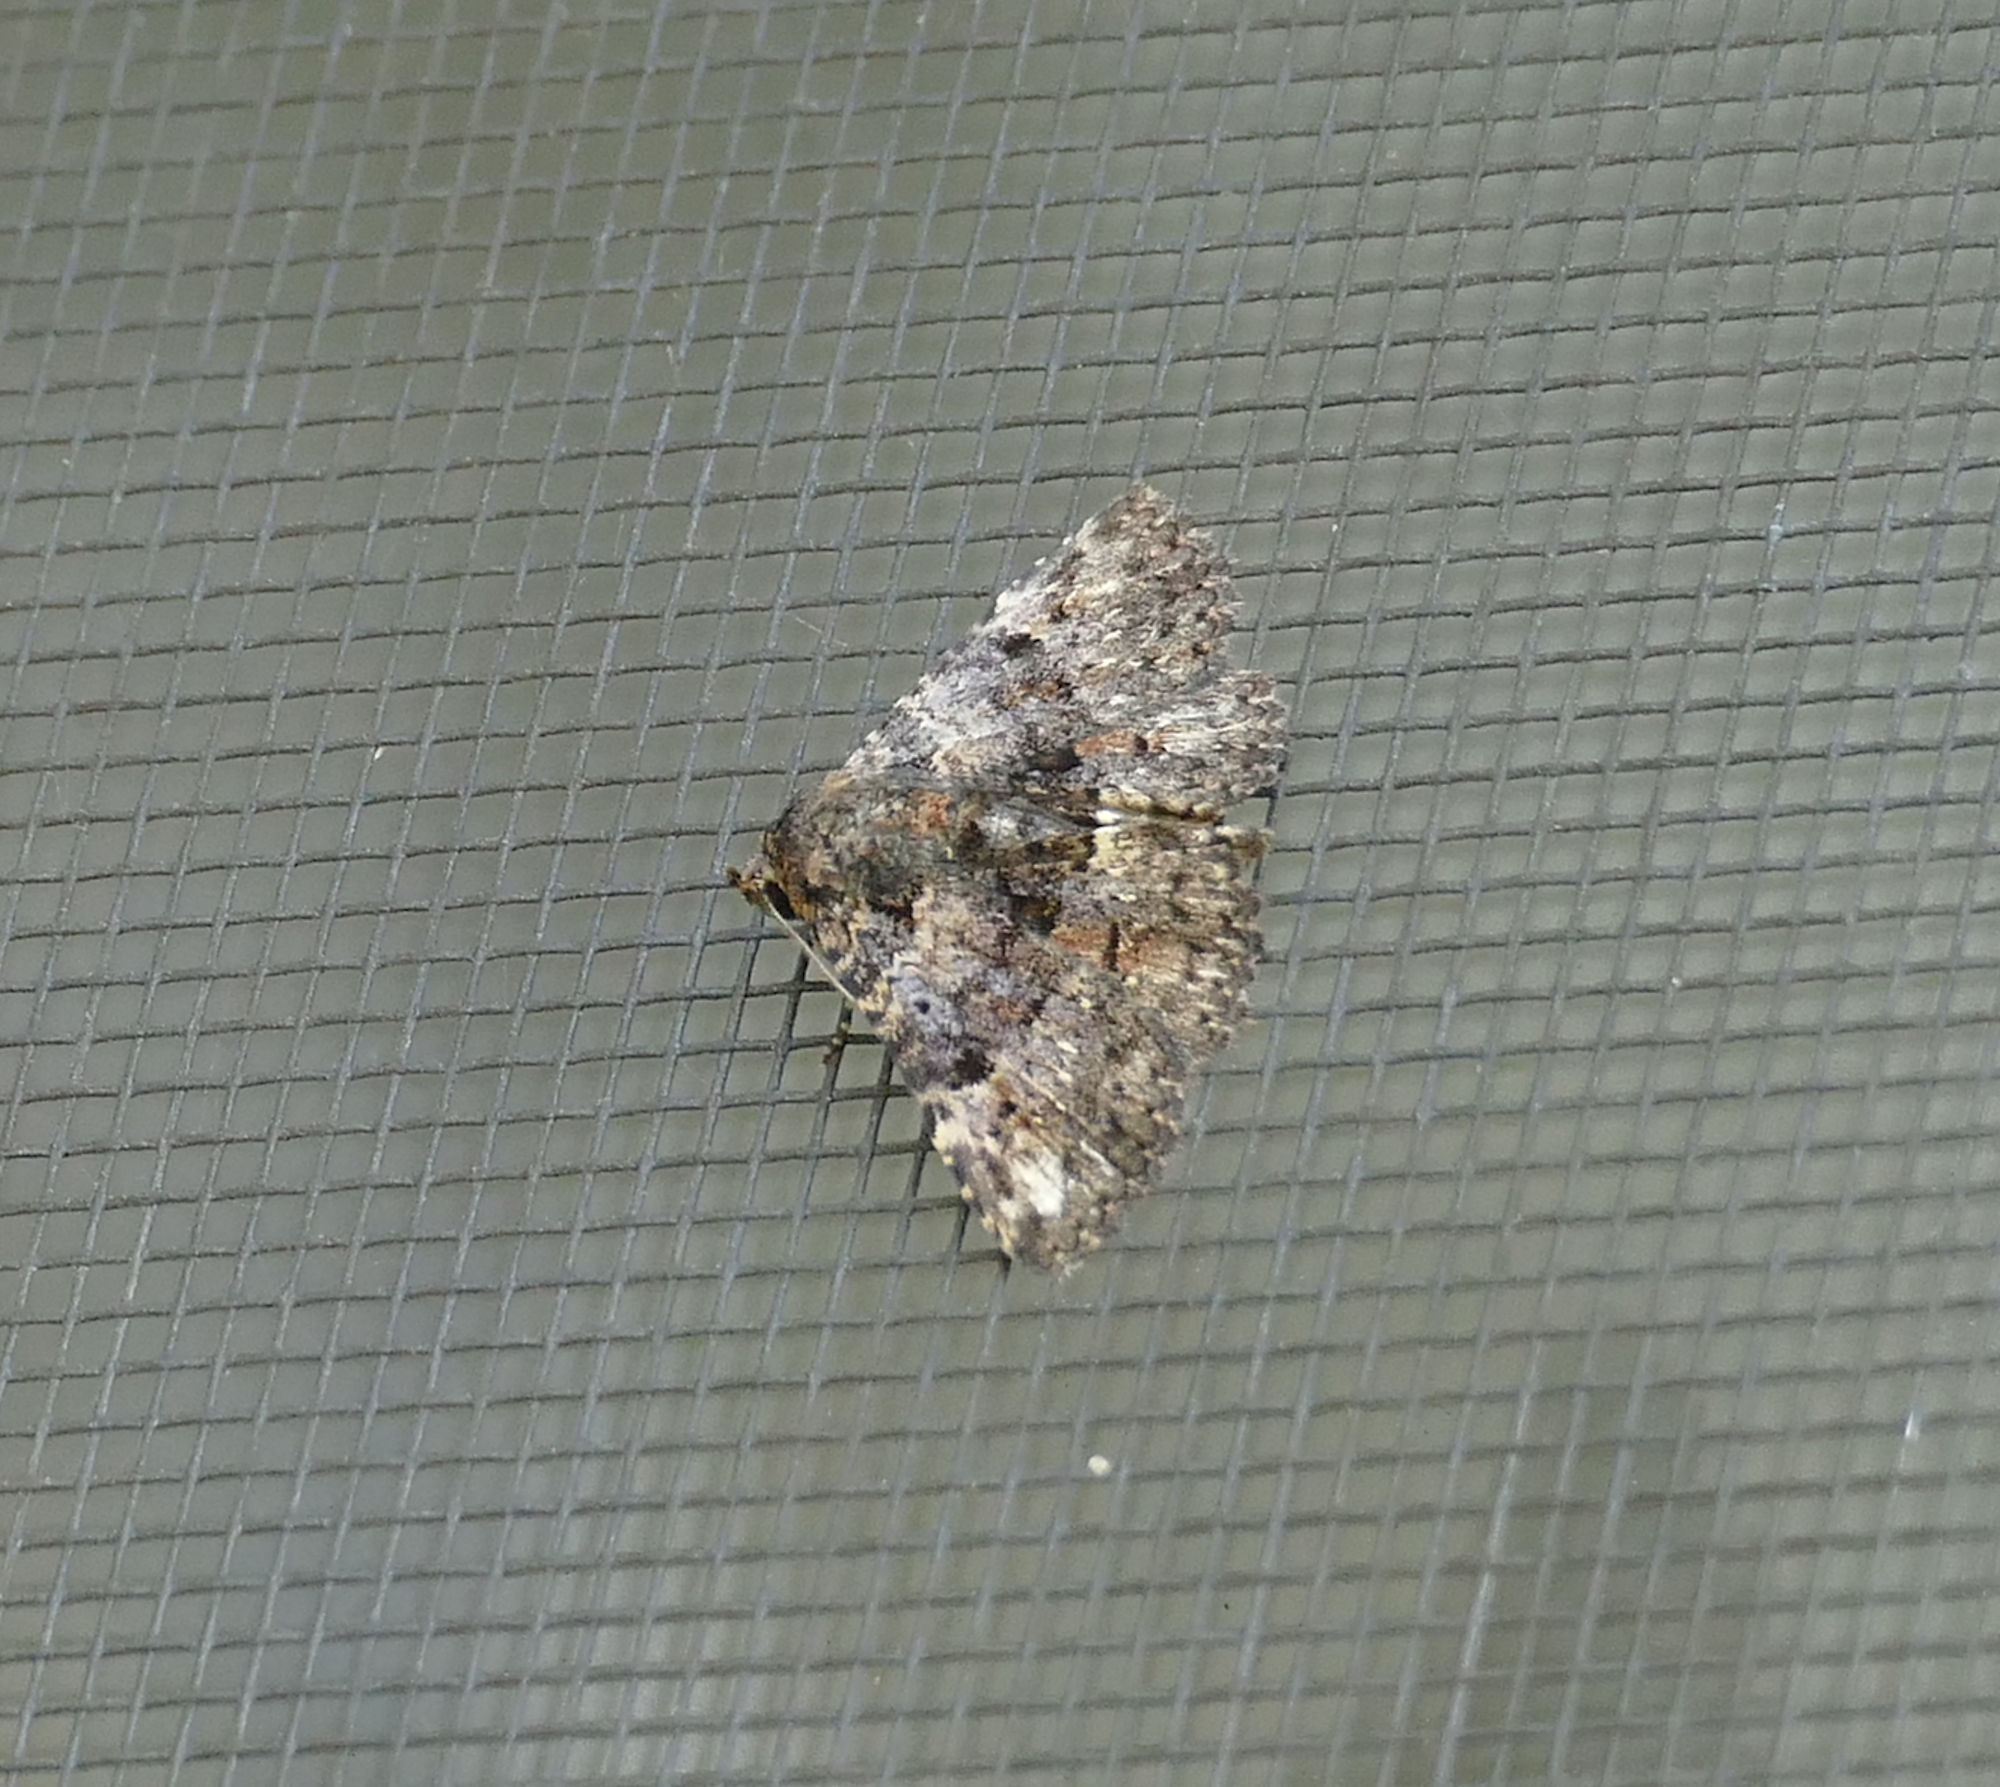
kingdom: Animalia
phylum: Arthropoda
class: Insecta
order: Lepidoptera
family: Erebidae
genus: Metalectra
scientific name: Metalectra discalis
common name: Common fungus moth
